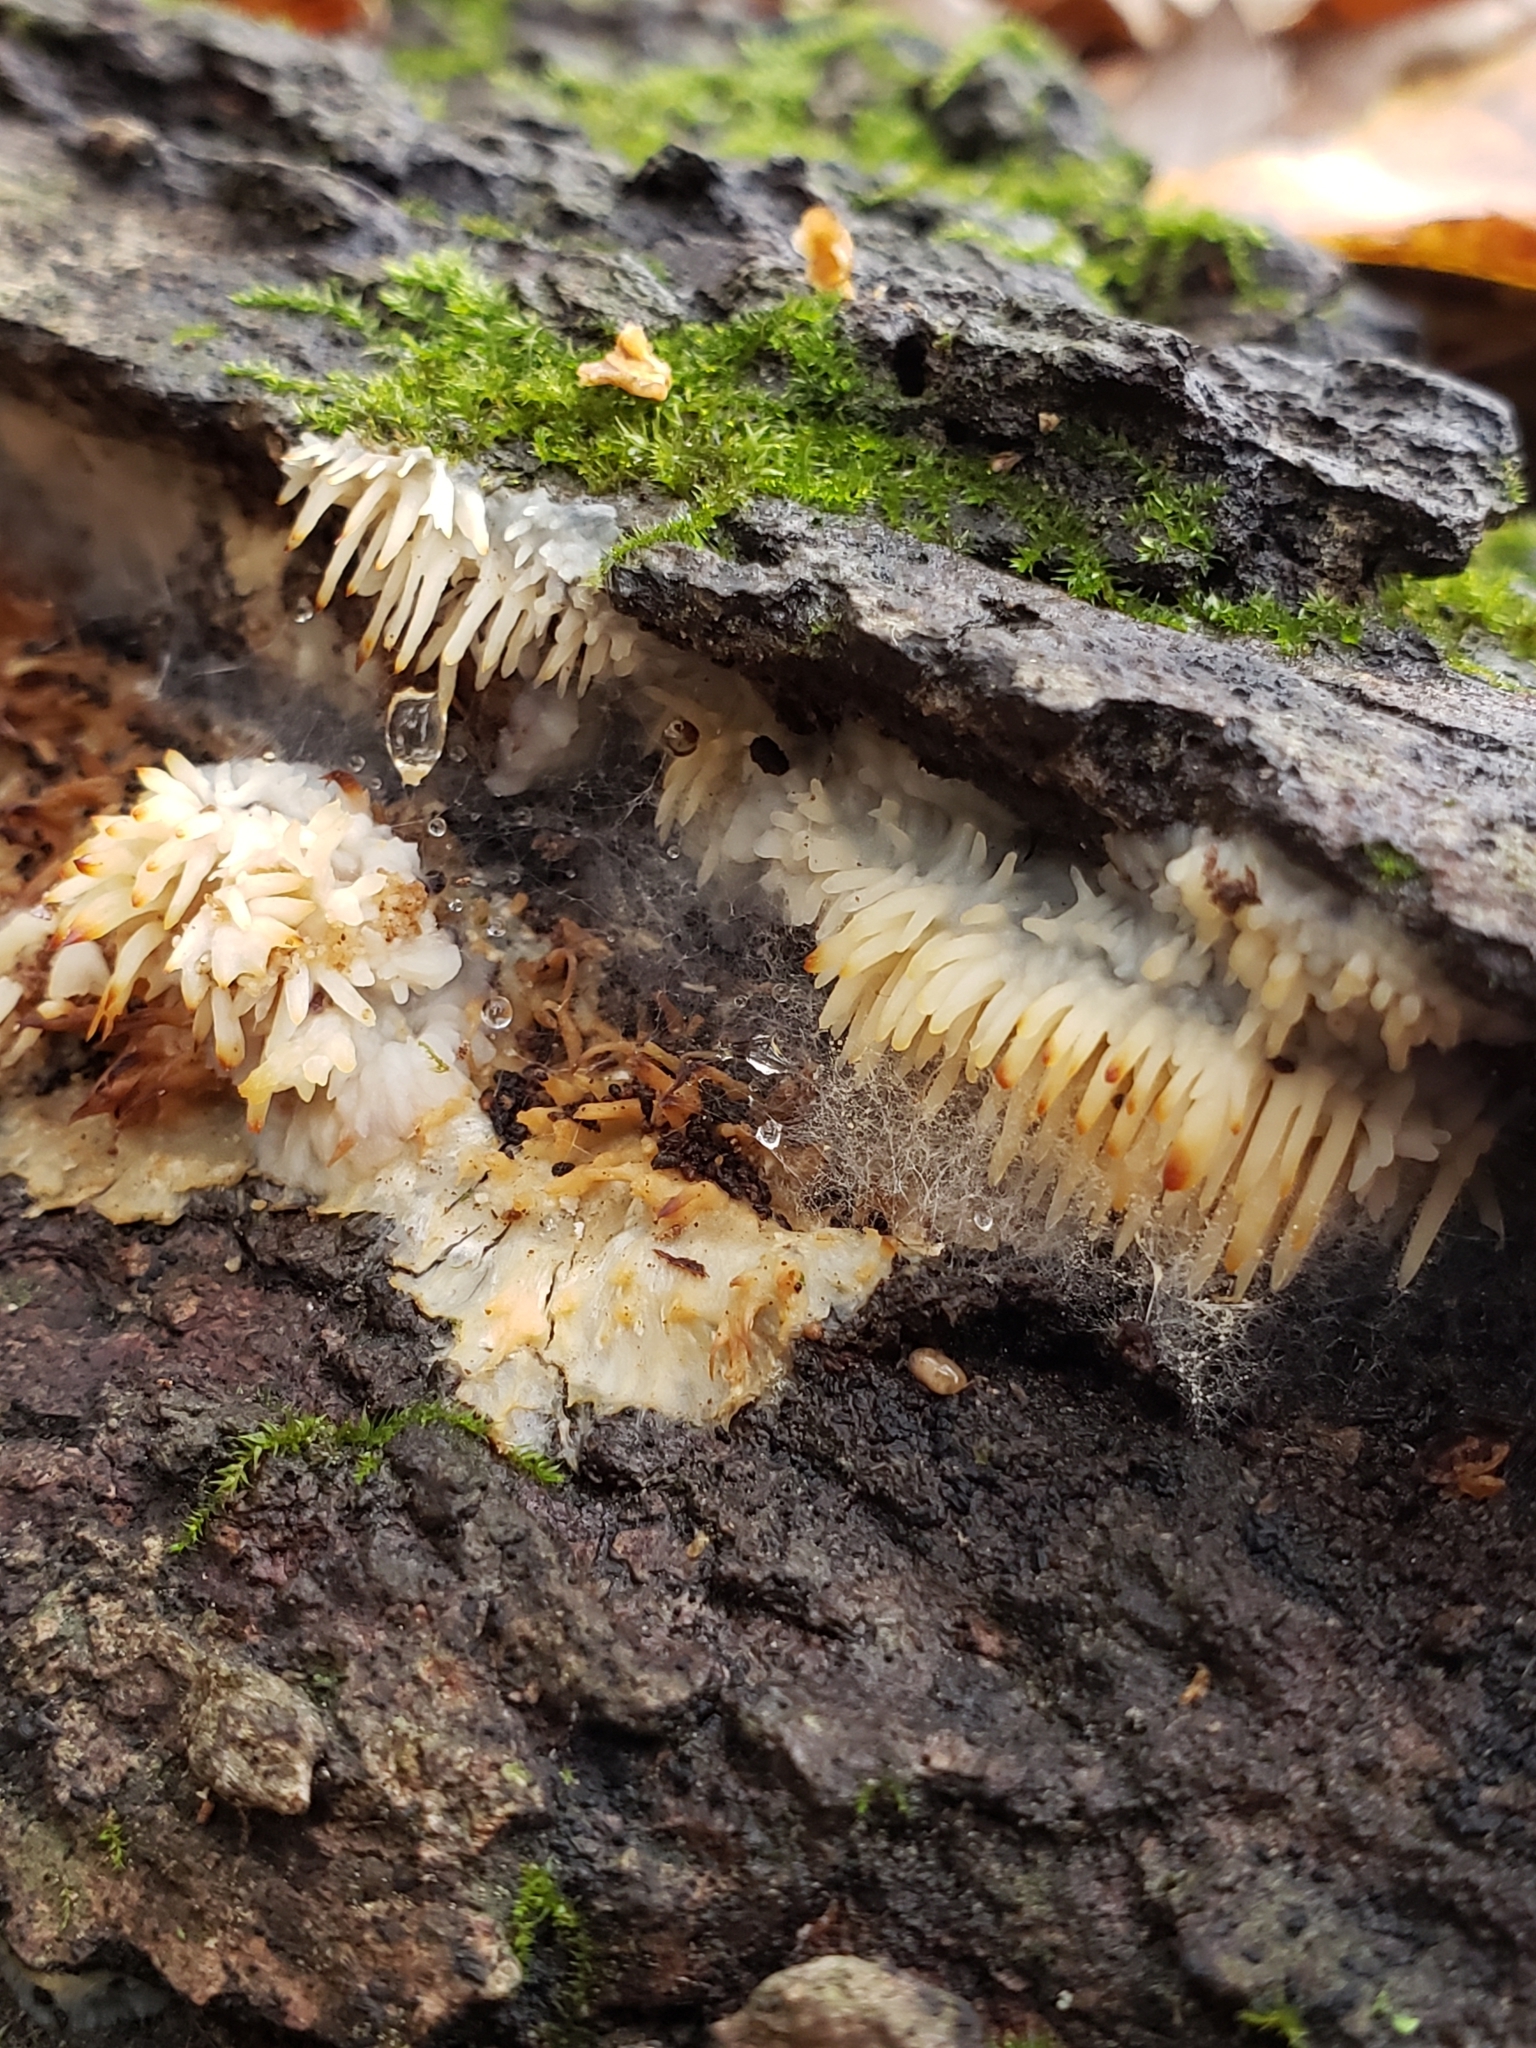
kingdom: Fungi
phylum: Basidiomycota
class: Agaricomycetes
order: Agaricales
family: Radulomycetaceae
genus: Radulomyces
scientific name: Radulomyces copelandii
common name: Asian beauty
